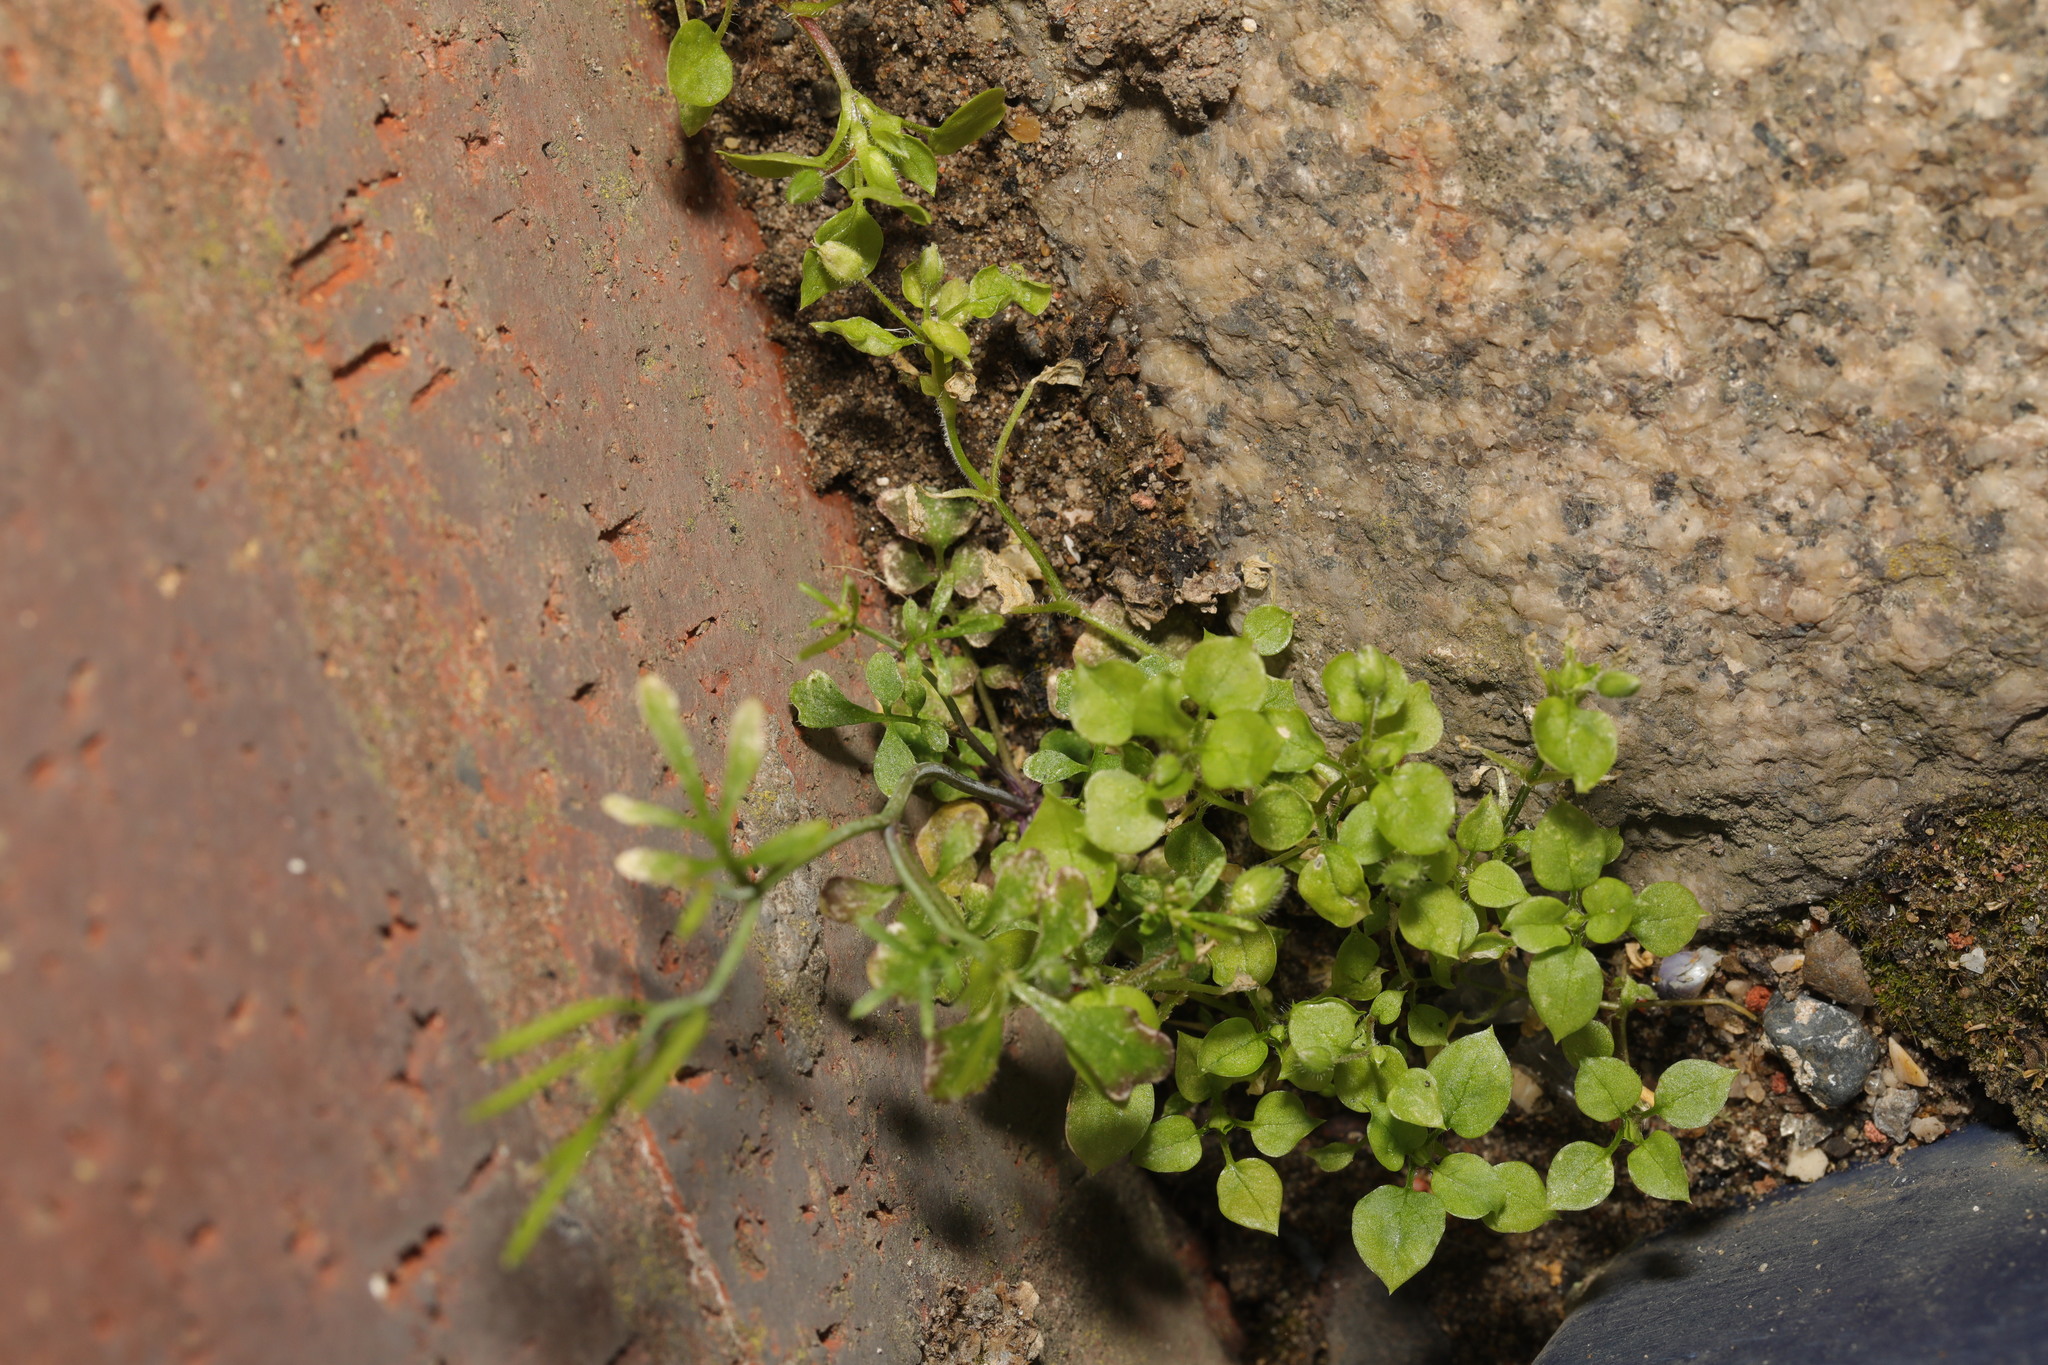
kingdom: Plantae
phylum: Tracheophyta
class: Magnoliopsida
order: Caryophyllales
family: Caryophyllaceae
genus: Stellaria
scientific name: Stellaria media
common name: Common chickweed
